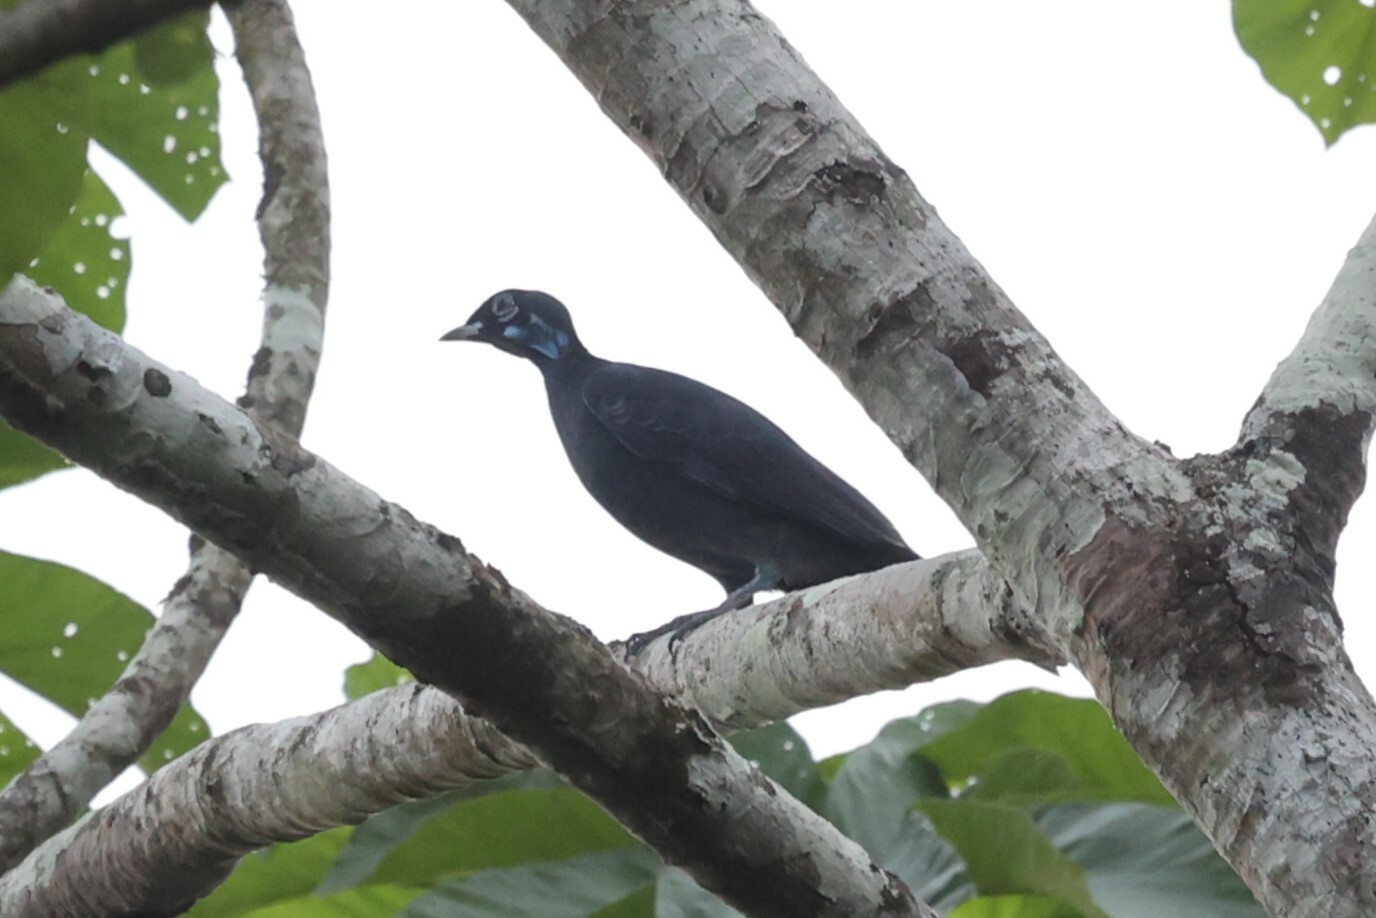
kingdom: Animalia
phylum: Chordata
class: Aves
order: Passeriformes
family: Cotingidae
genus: Gymnoderus
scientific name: Gymnoderus foetidus
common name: Bare-necked fruitcrow
